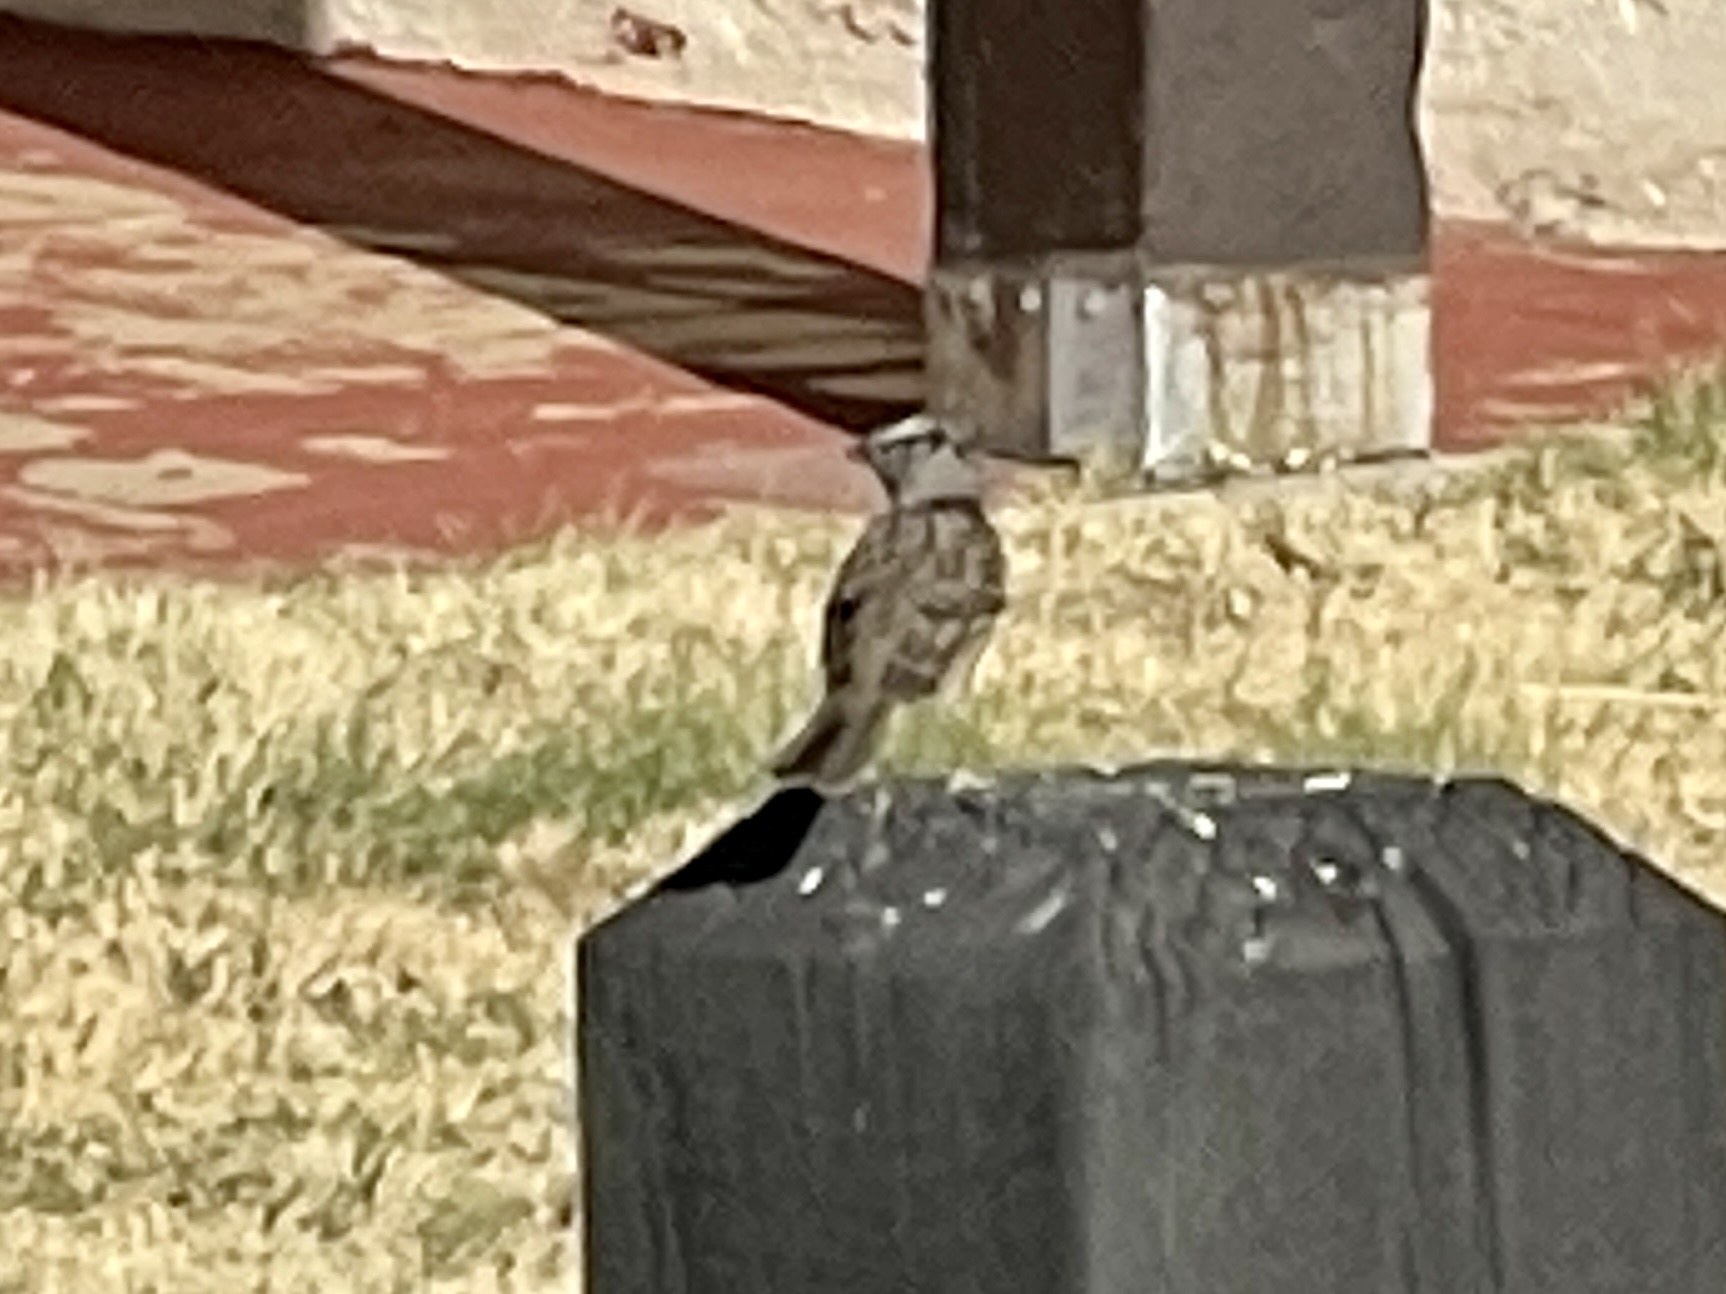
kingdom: Animalia
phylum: Chordata
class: Aves
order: Passeriformes
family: Passerellidae
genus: Zonotrichia
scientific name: Zonotrichia leucophrys
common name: White-crowned sparrow
